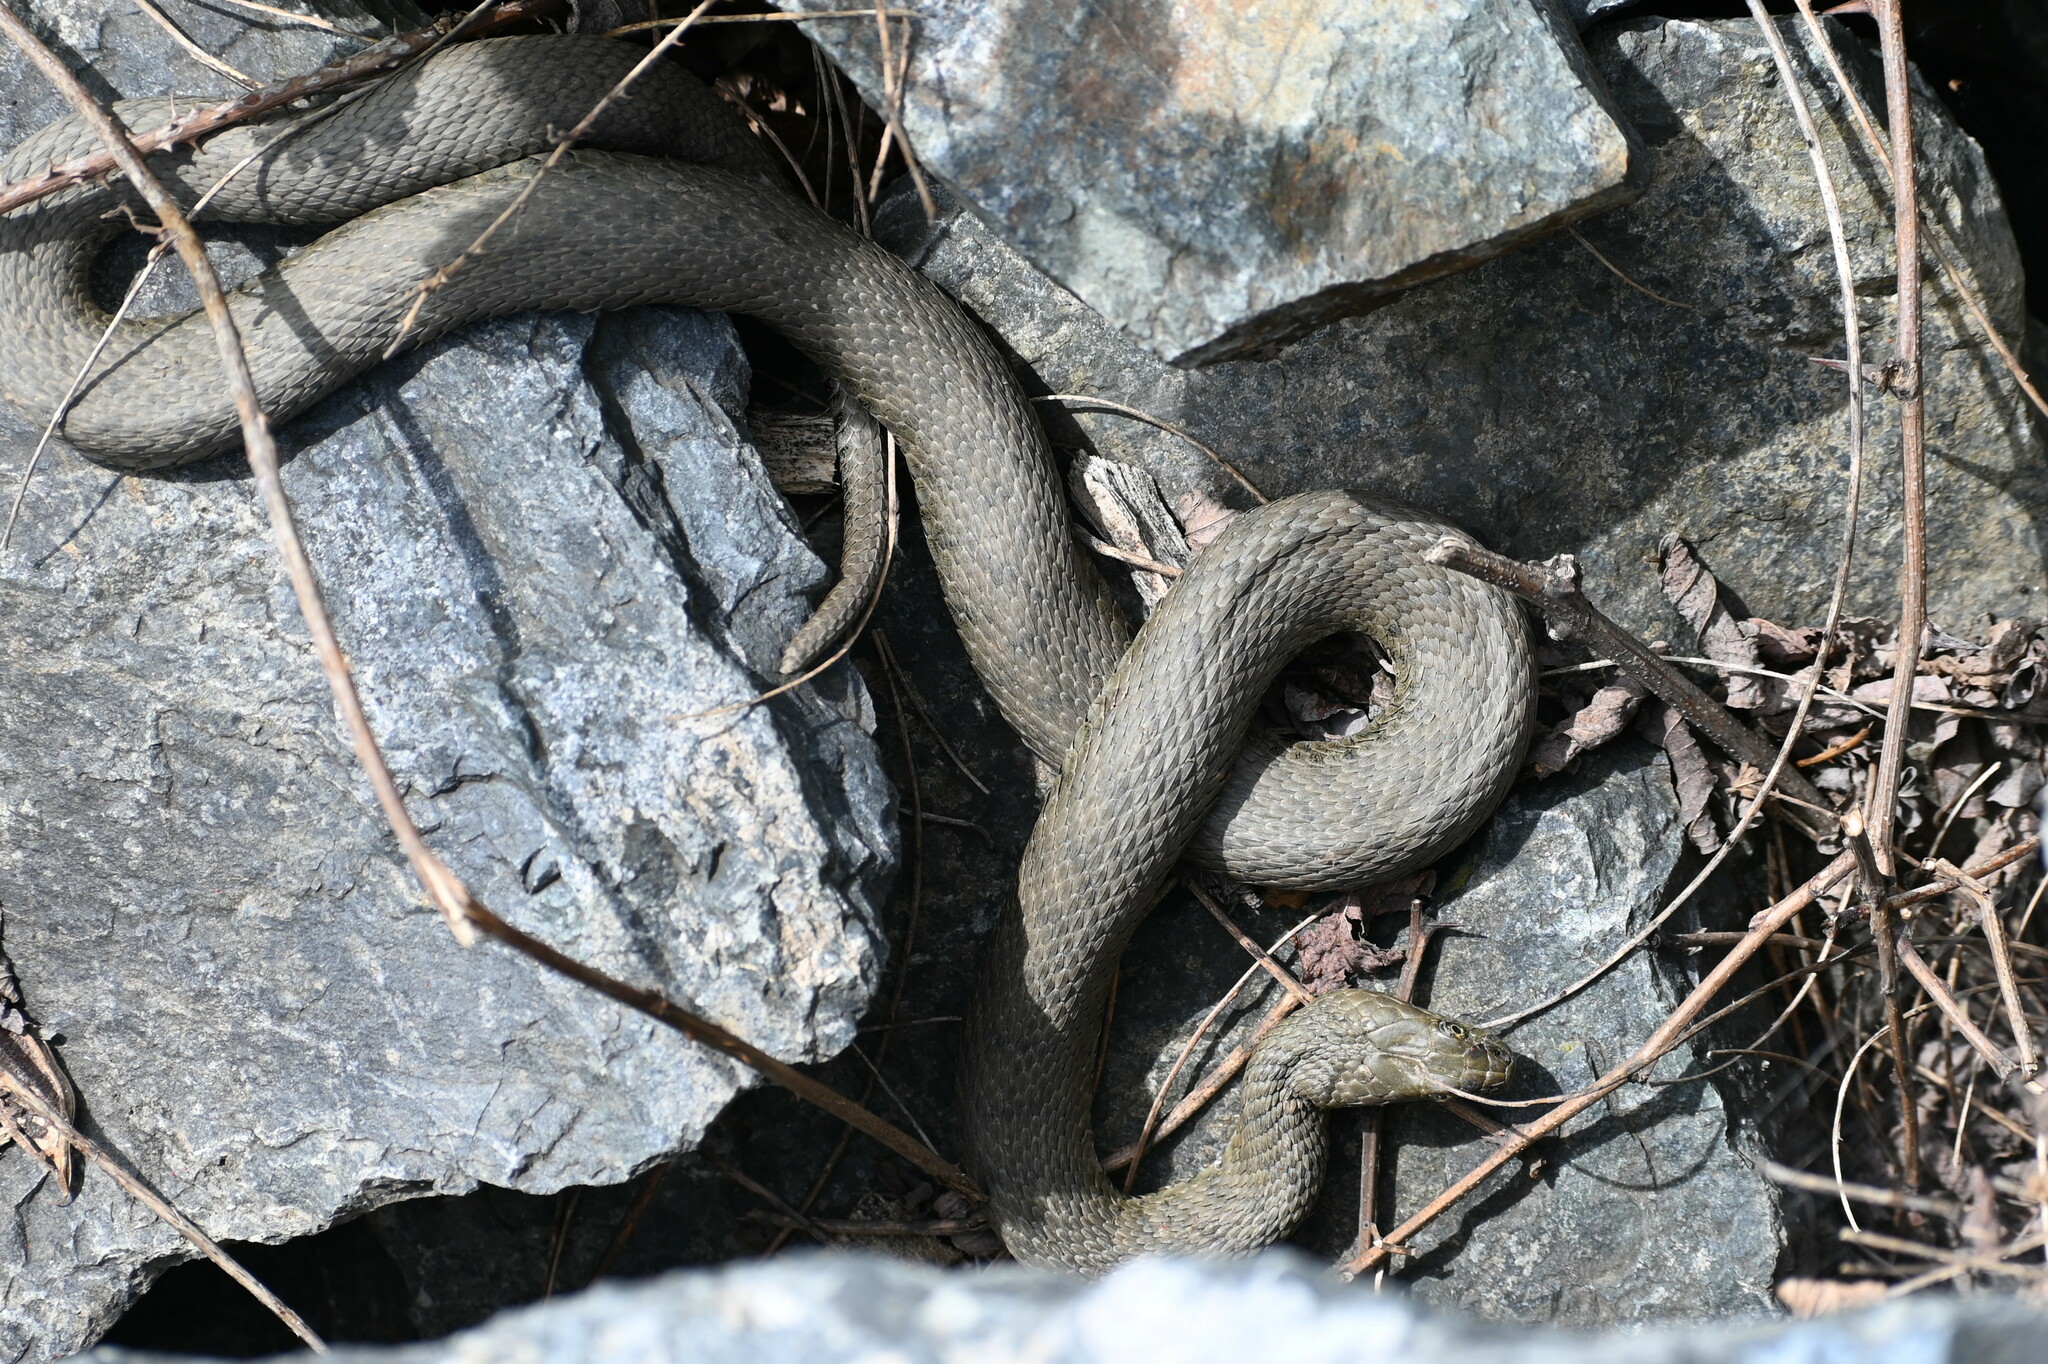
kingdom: Animalia
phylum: Chordata
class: Squamata
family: Colubridae
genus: Natrix
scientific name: Natrix tessellata
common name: Dice snake
